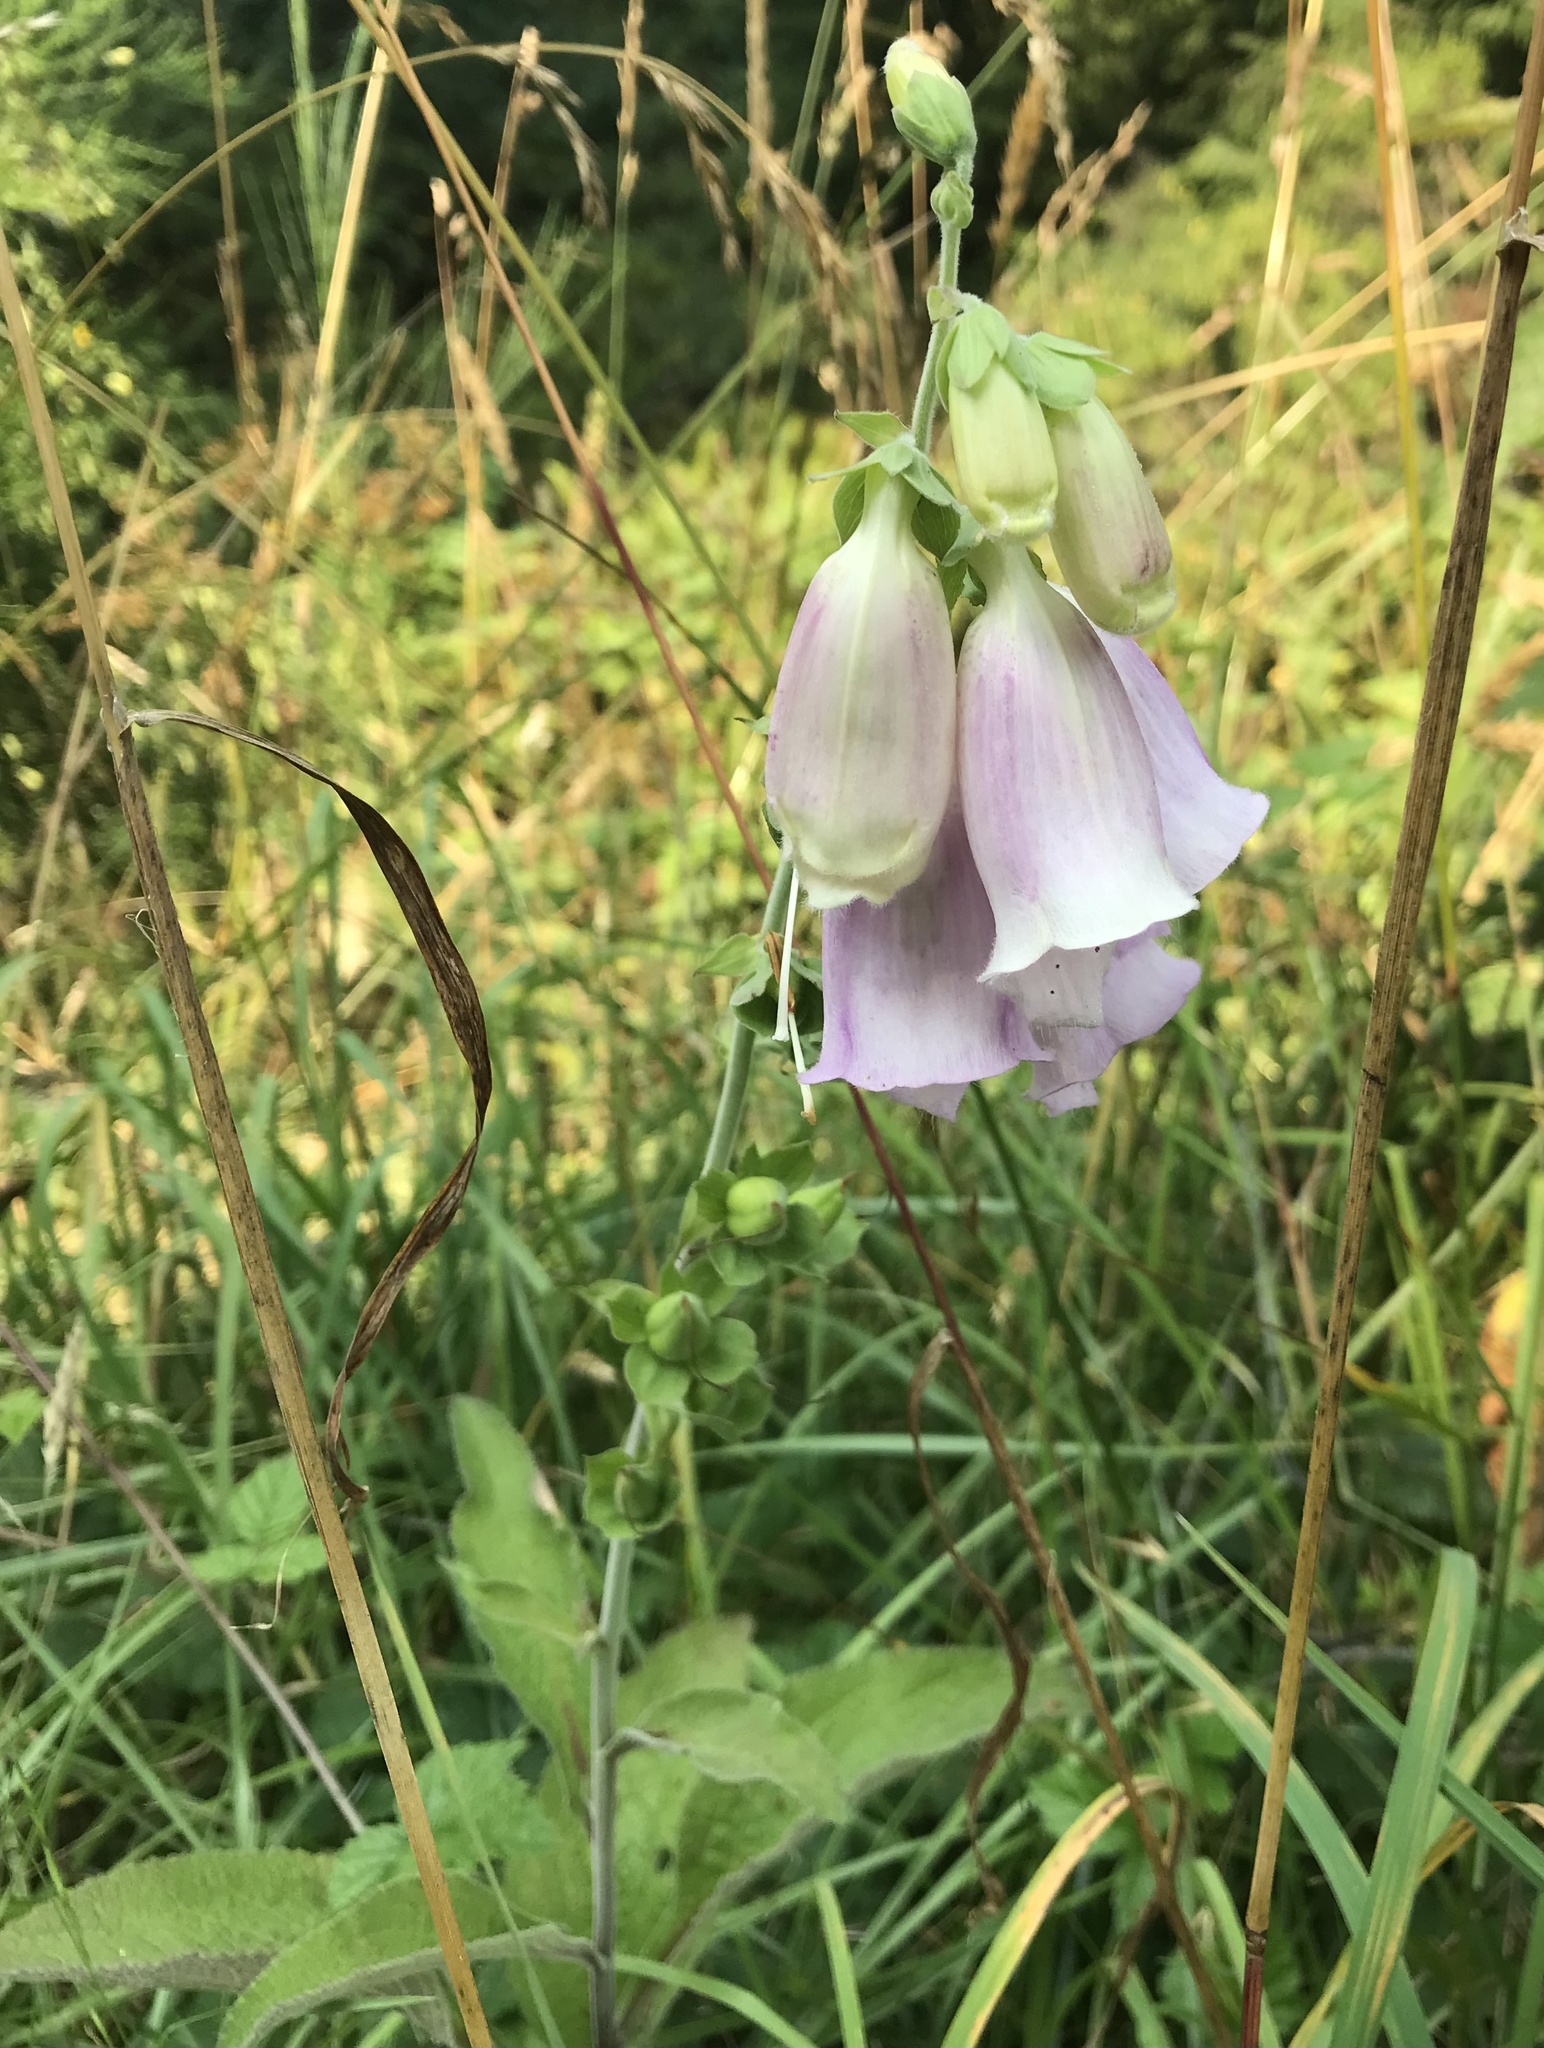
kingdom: Plantae
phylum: Tracheophyta
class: Magnoliopsida
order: Lamiales
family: Plantaginaceae
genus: Digitalis
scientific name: Digitalis purpurea
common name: Foxglove
